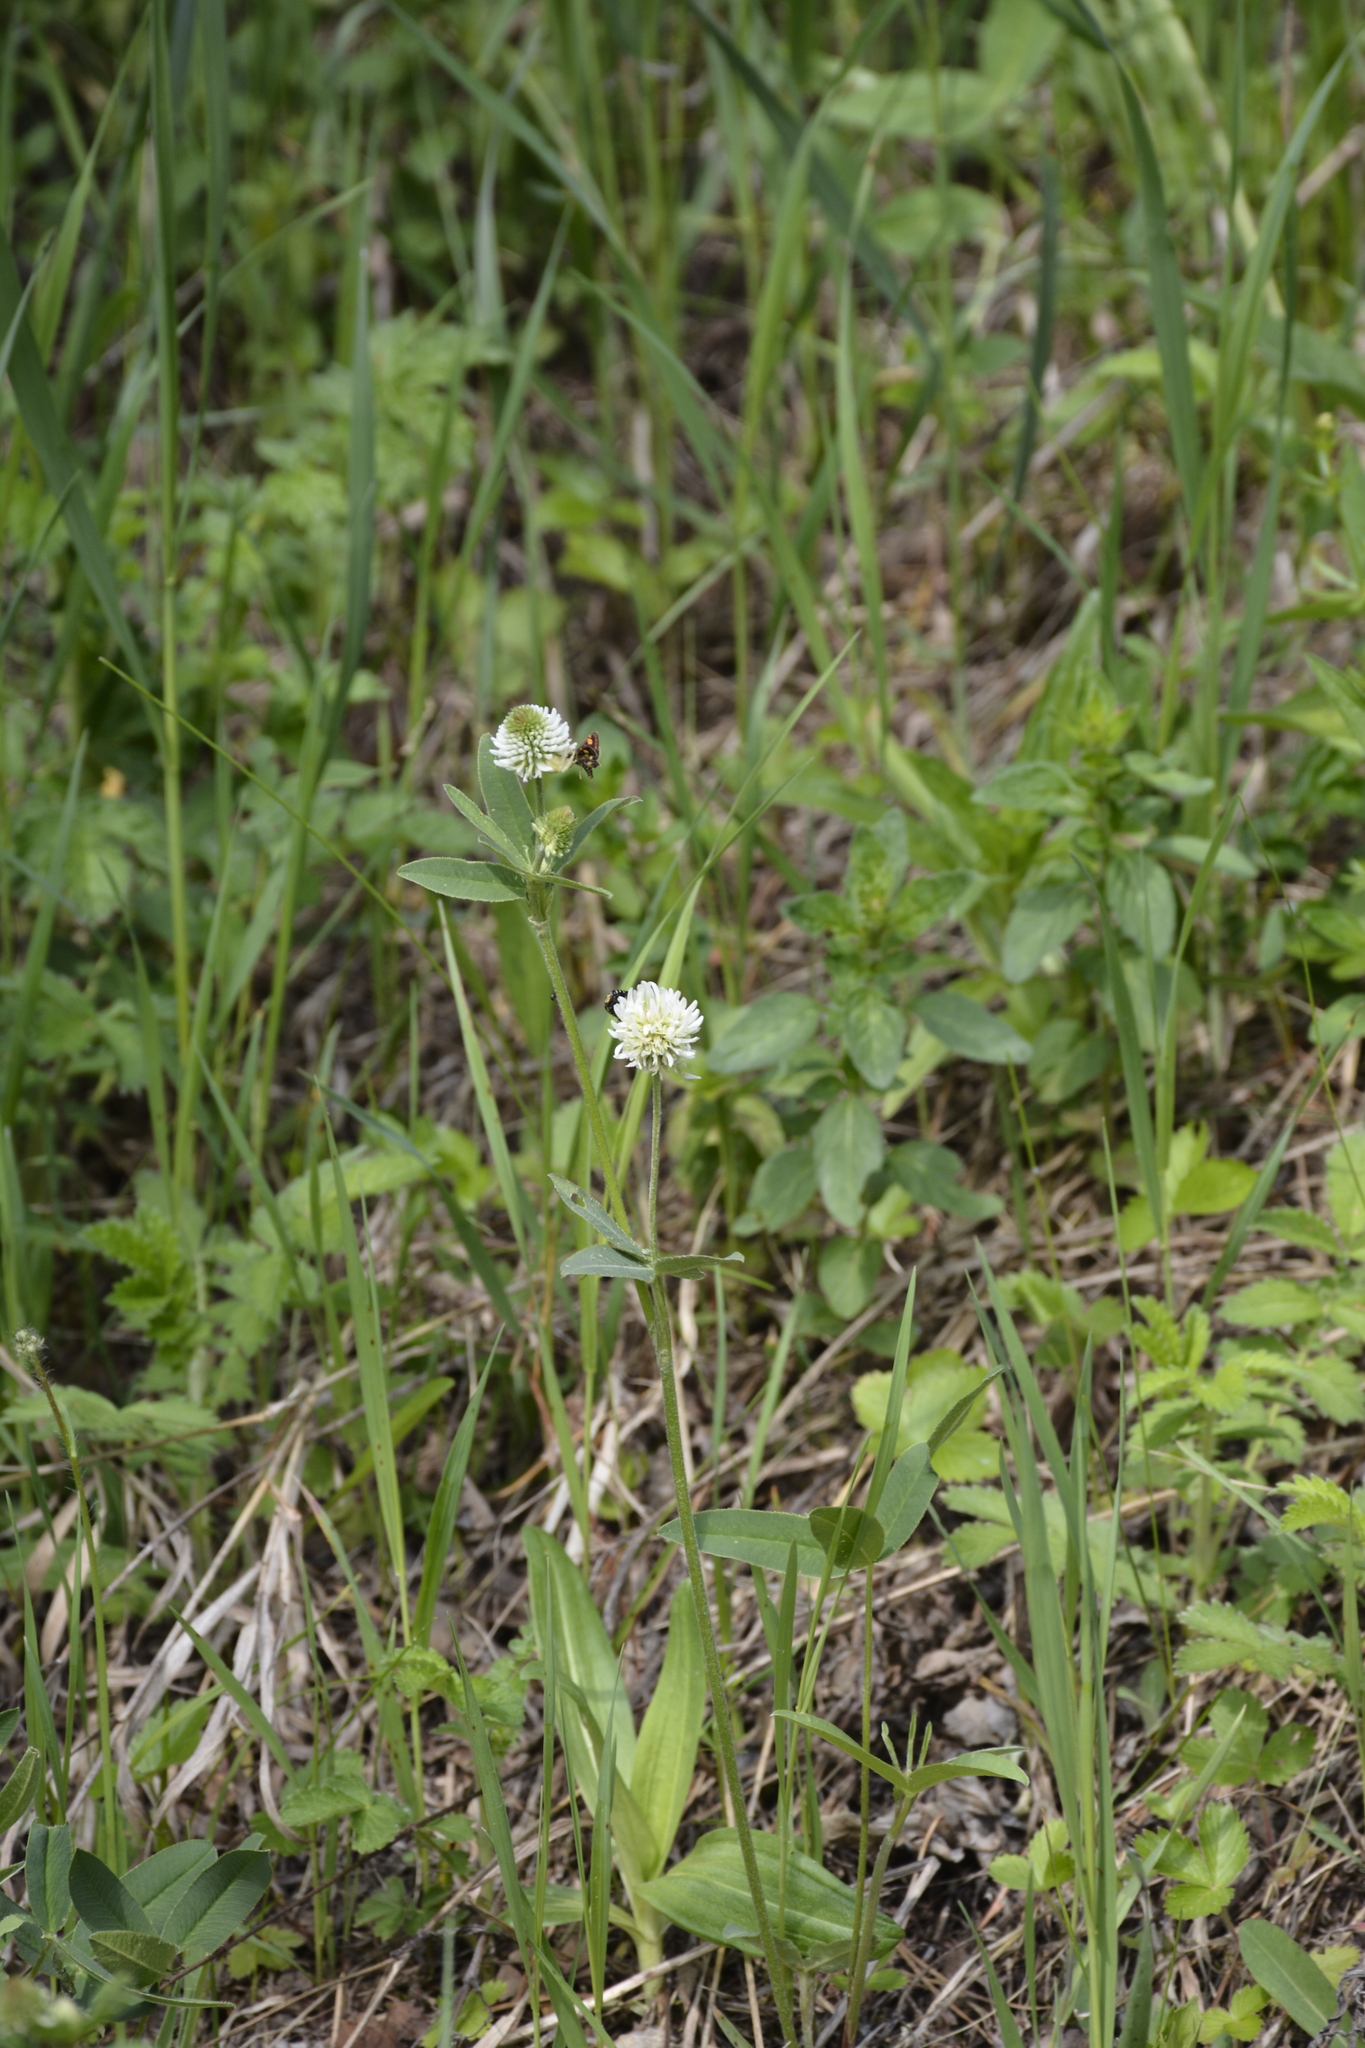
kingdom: Plantae
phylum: Tracheophyta
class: Magnoliopsida
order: Fabales
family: Fabaceae
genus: Trifolium
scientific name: Trifolium montanum
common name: Mountain clover
